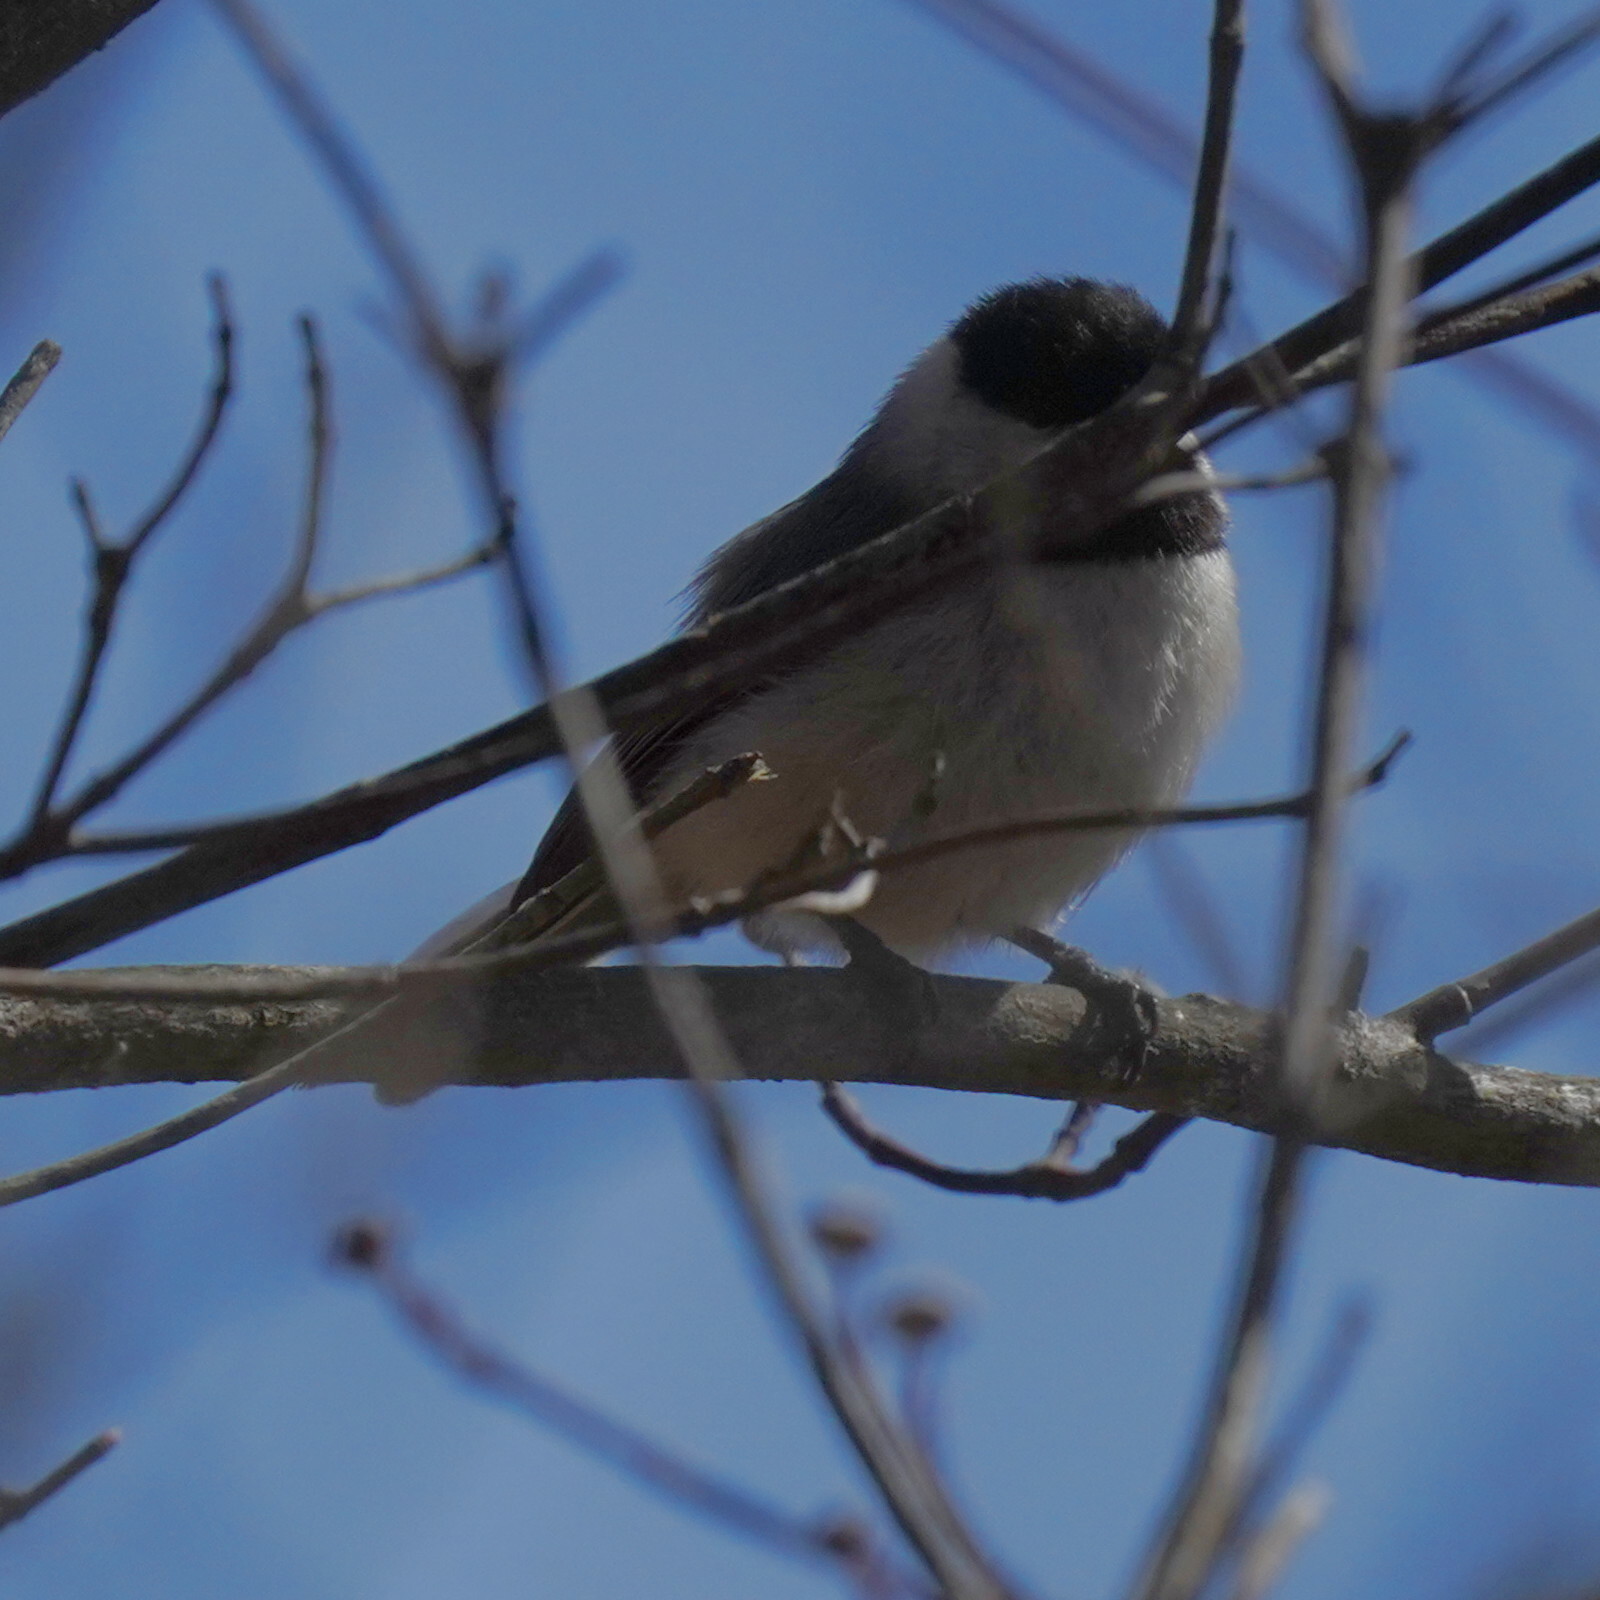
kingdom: Animalia
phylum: Chordata
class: Aves
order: Passeriformes
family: Paridae
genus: Poecile
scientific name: Poecile atricapillus
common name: Black-capped chickadee
